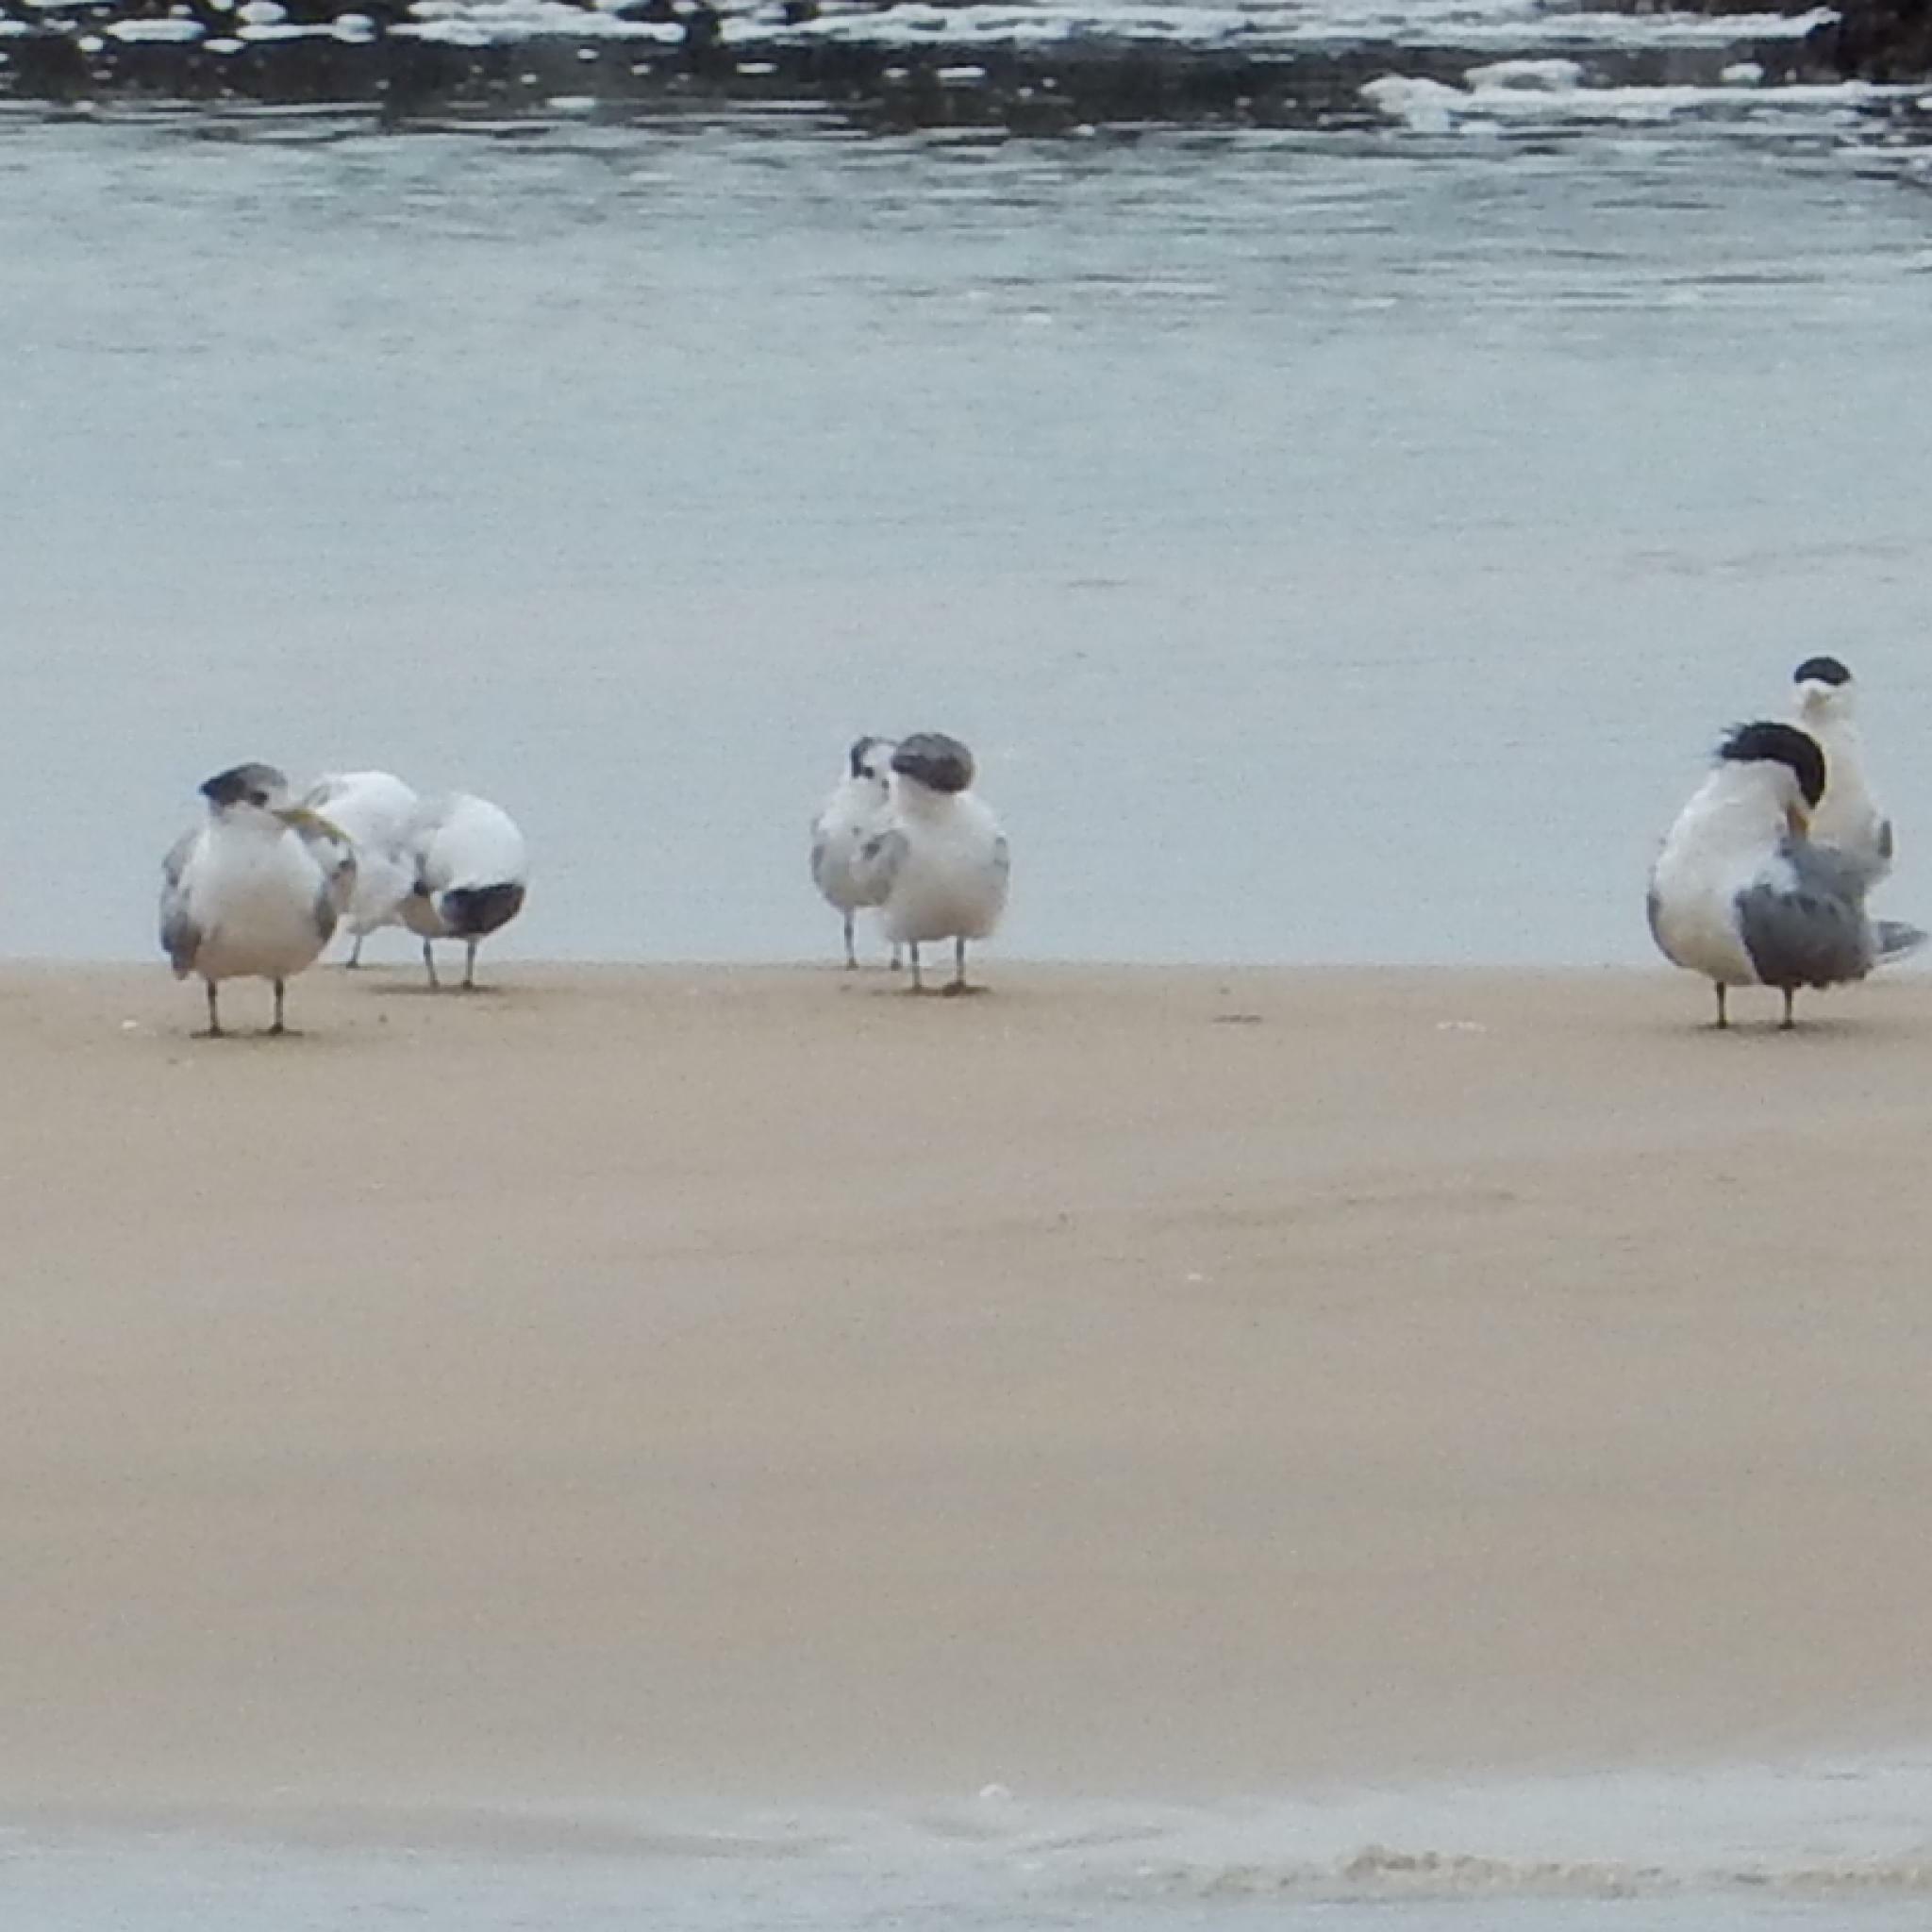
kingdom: Animalia
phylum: Chordata
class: Aves
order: Charadriiformes
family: Laridae
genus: Thalasseus
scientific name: Thalasseus bergii
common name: Greater crested tern
